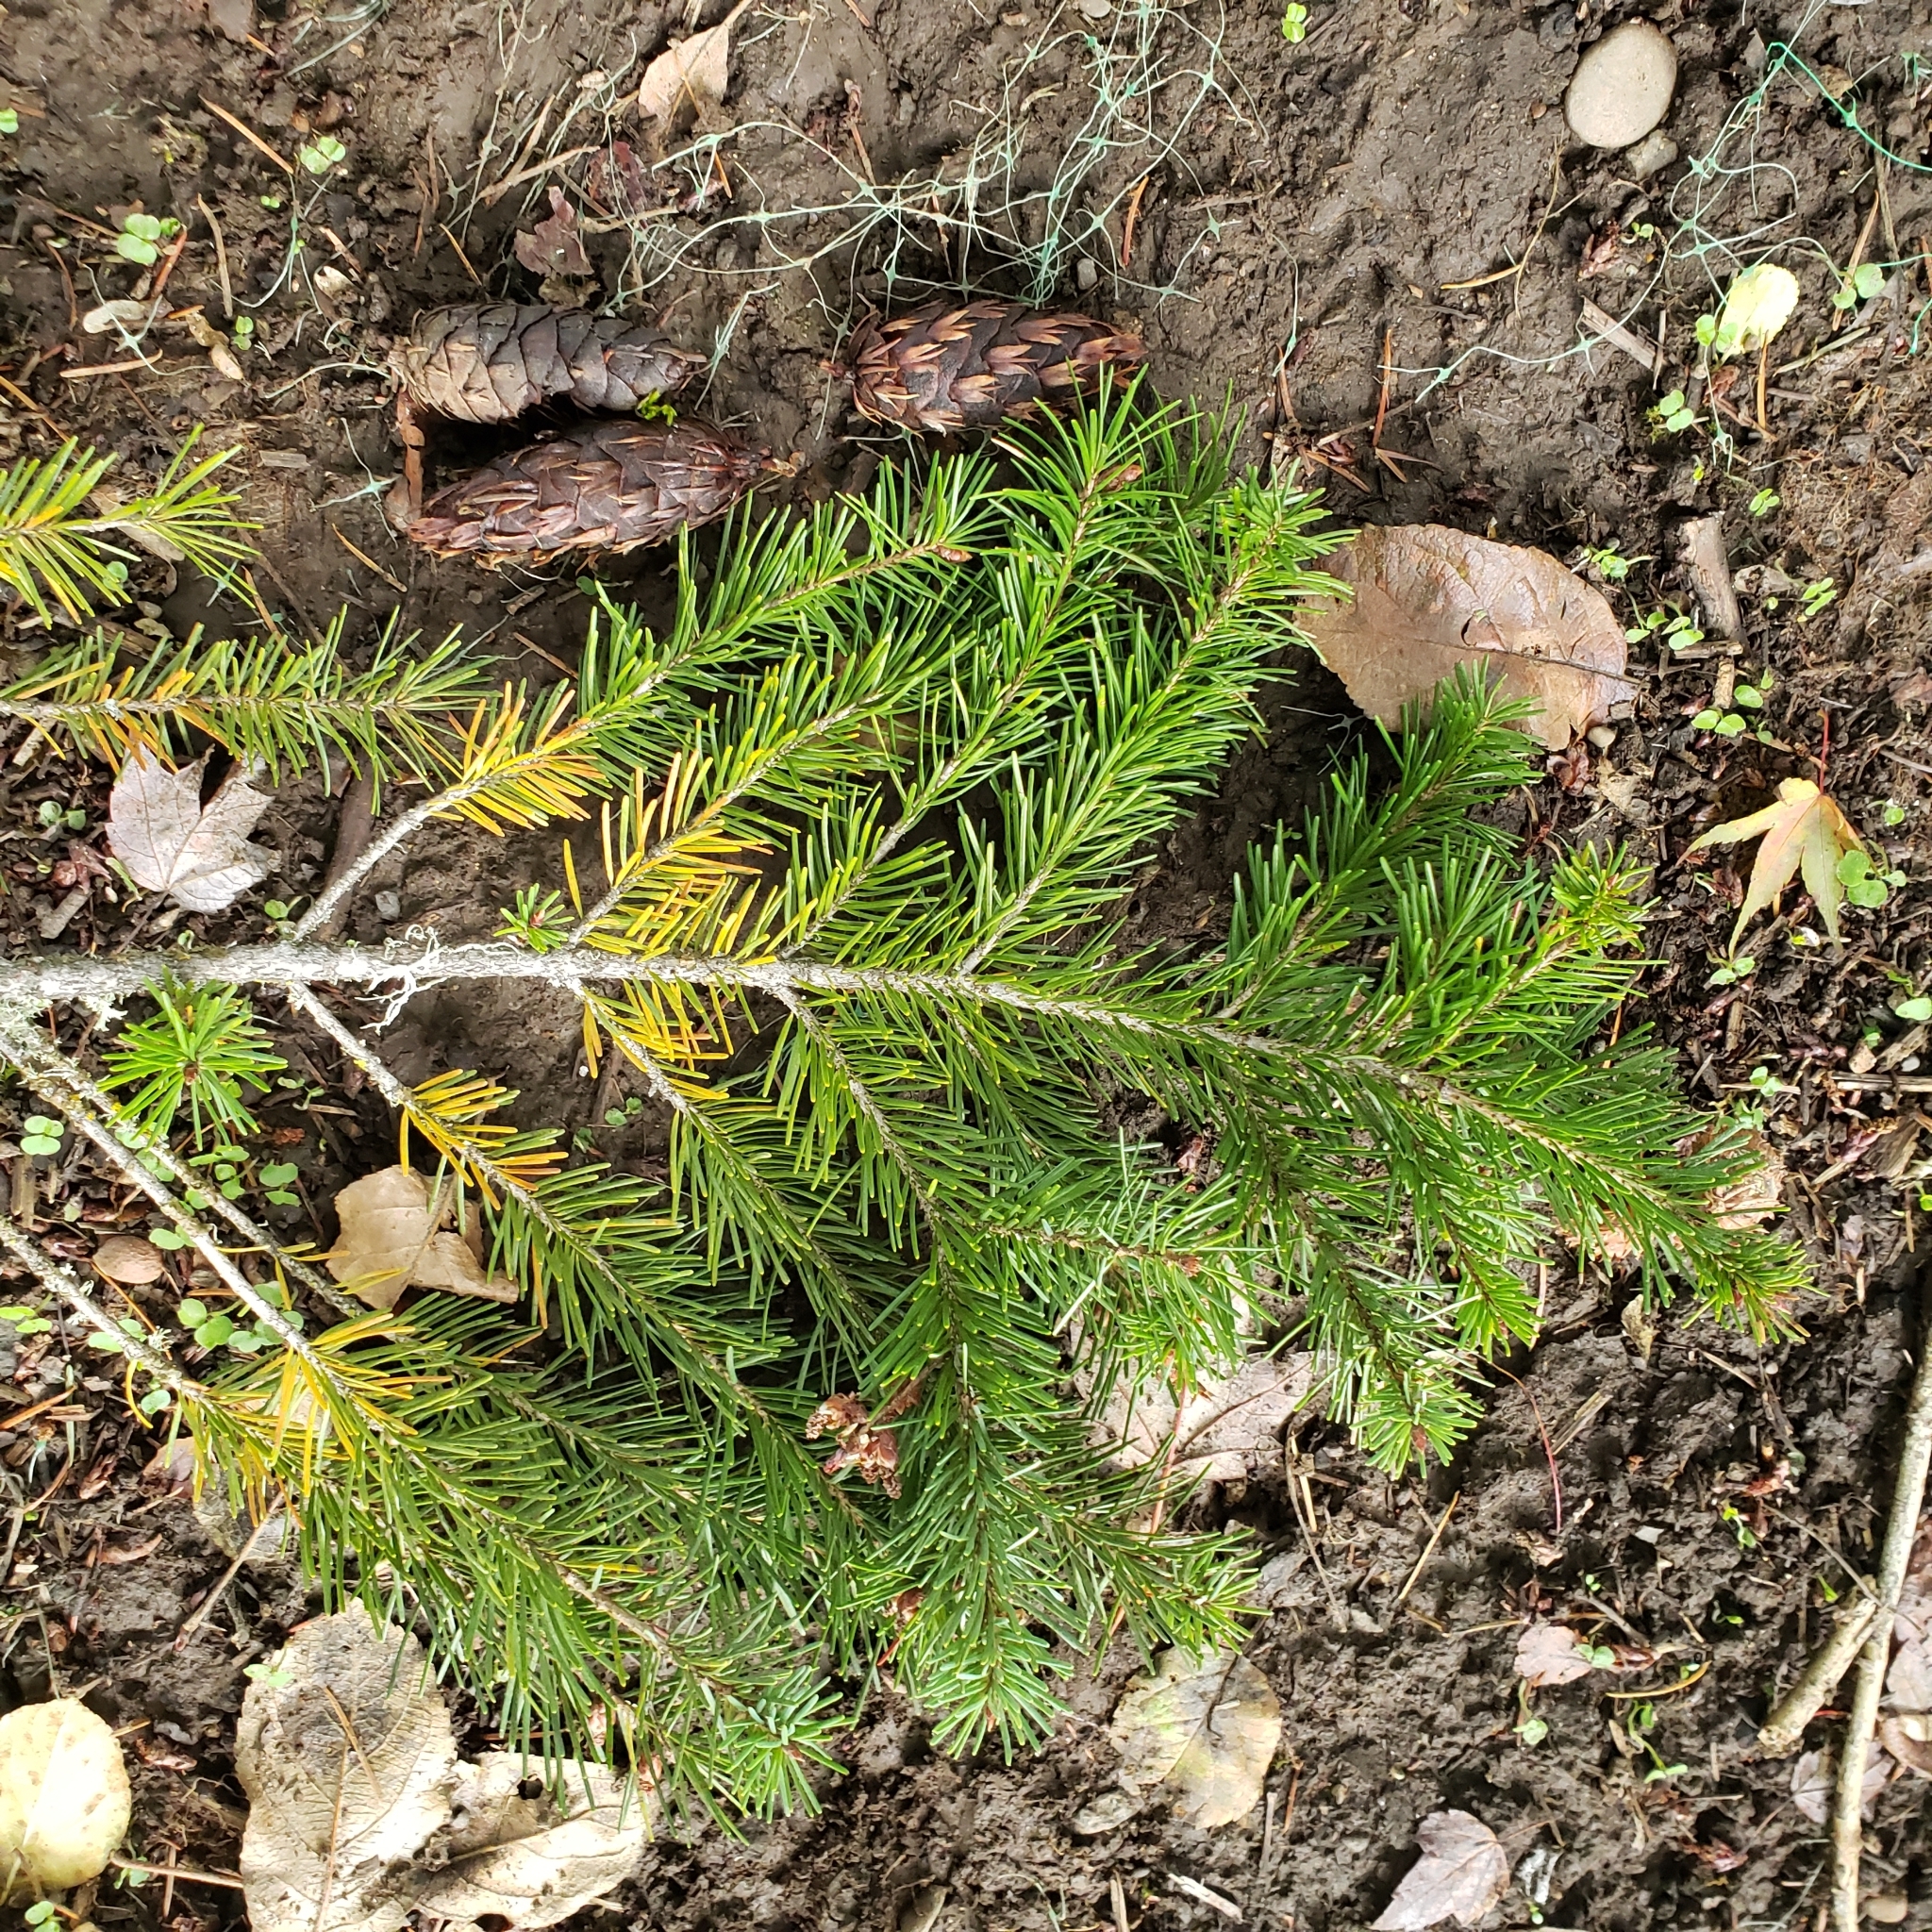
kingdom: Plantae
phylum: Tracheophyta
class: Pinopsida
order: Pinales
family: Pinaceae
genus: Pseudotsuga
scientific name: Pseudotsuga menziesii
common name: Douglas fir
